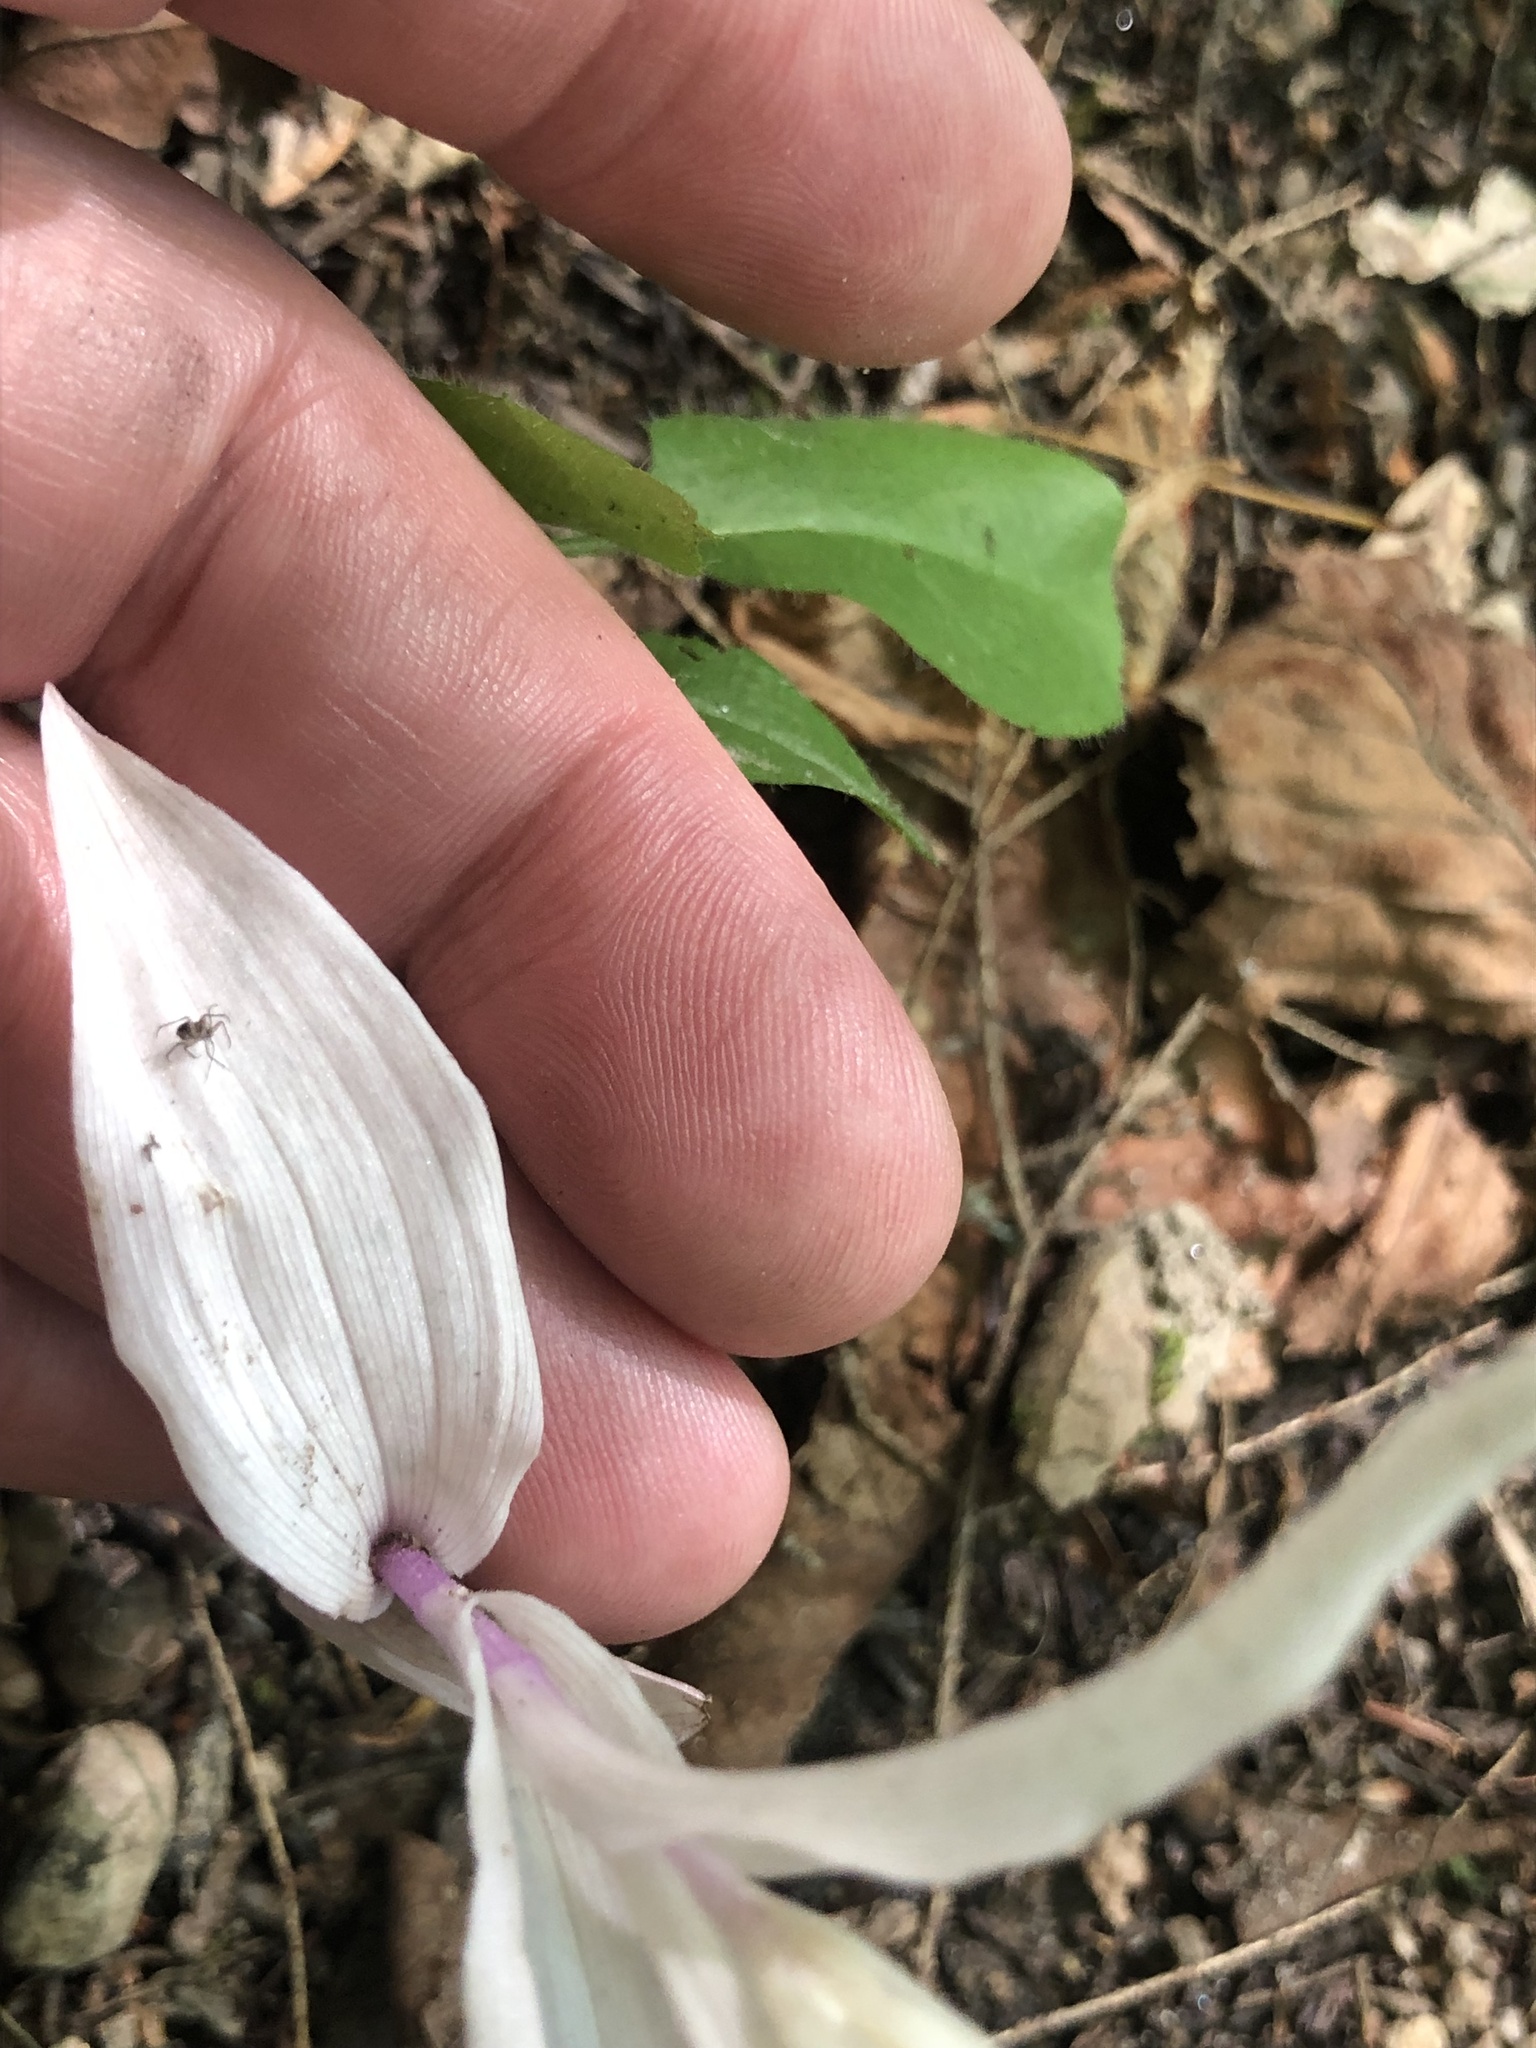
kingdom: Plantae
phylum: Tracheophyta
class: Liliopsida
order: Asparagales
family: Orchidaceae
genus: Epipactis
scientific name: Epipactis helleborine
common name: Broad-leaved helleborine
